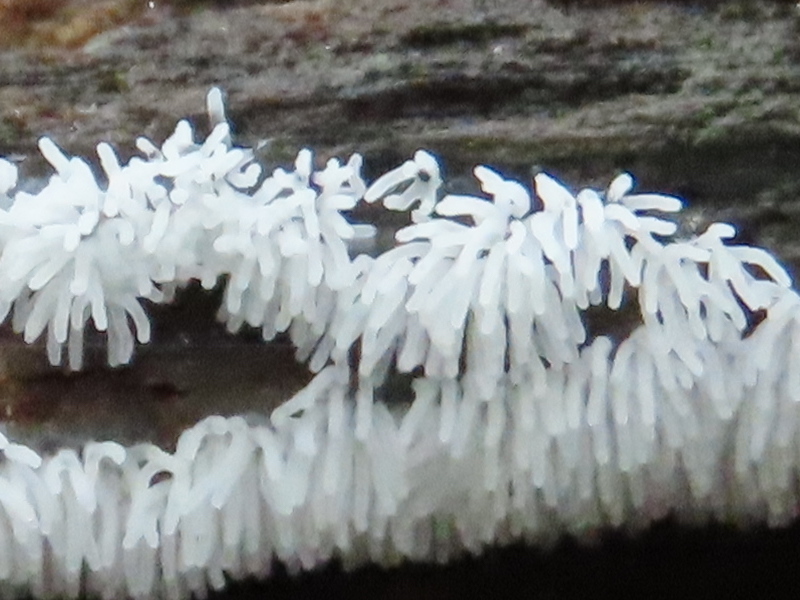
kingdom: Protozoa
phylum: Mycetozoa
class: Protosteliomycetes
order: Ceratiomyxales
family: Ceratiomyxaceae
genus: Ceratiomyxa
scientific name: Ceratiomyxa fruticulosa
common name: Honeycomb coral slime mold
